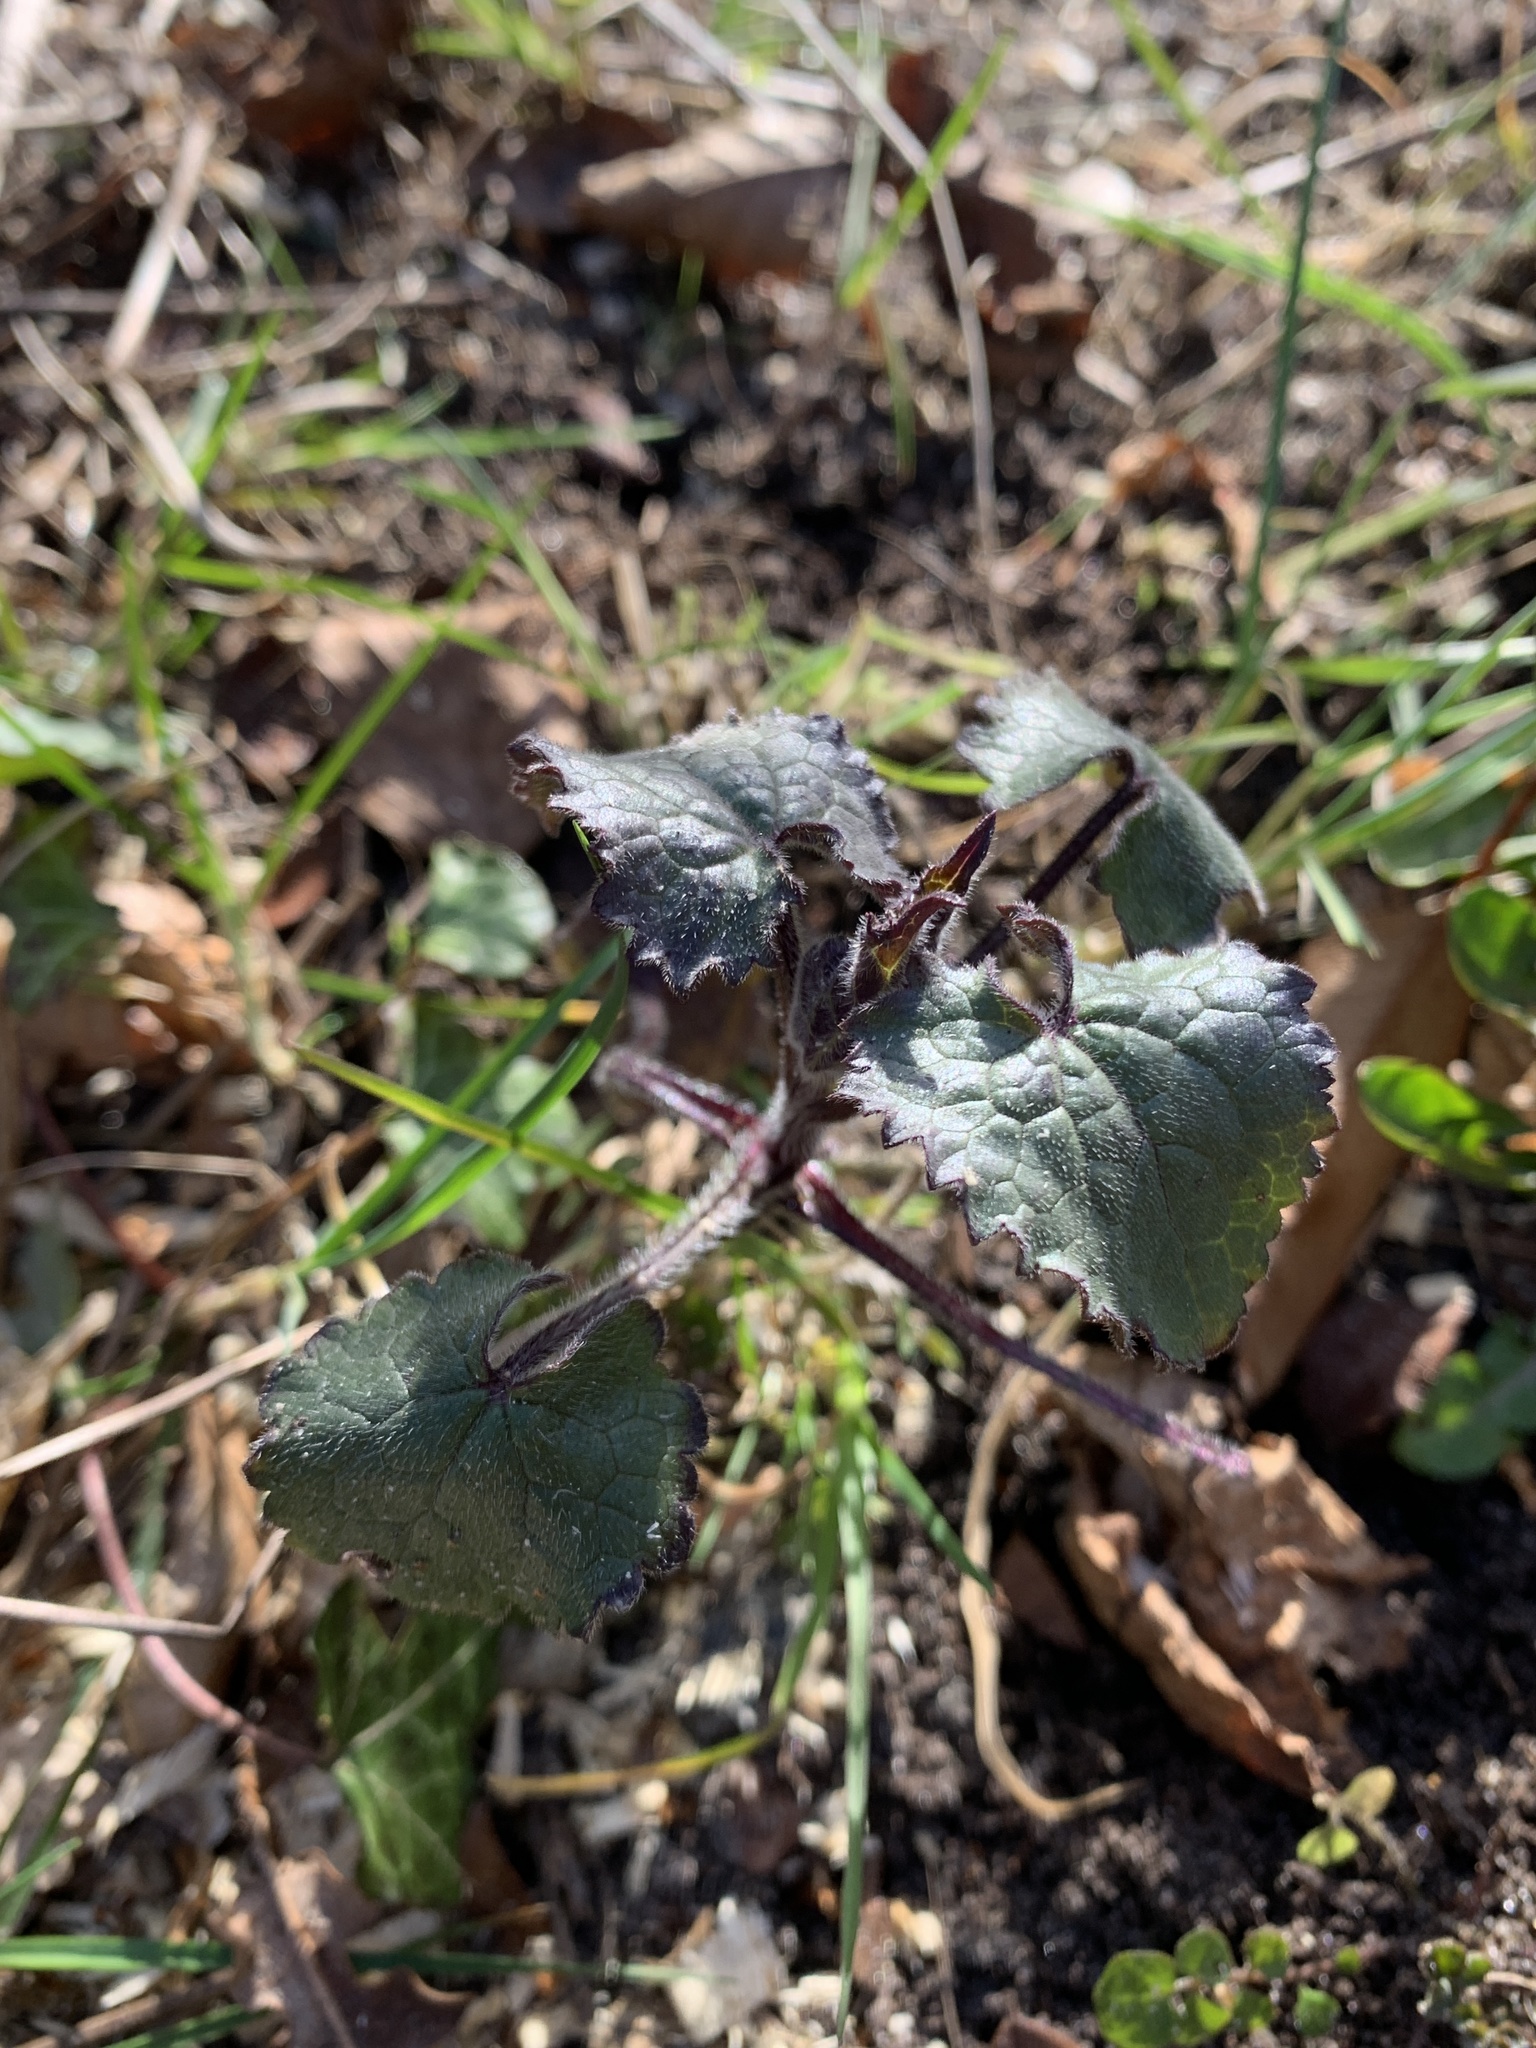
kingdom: Plantae
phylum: Tracheophyta
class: Magnoliopsida
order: Brassicales
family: Brassicaceae
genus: Lunaria
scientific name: Lunaria annua
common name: Honesty
